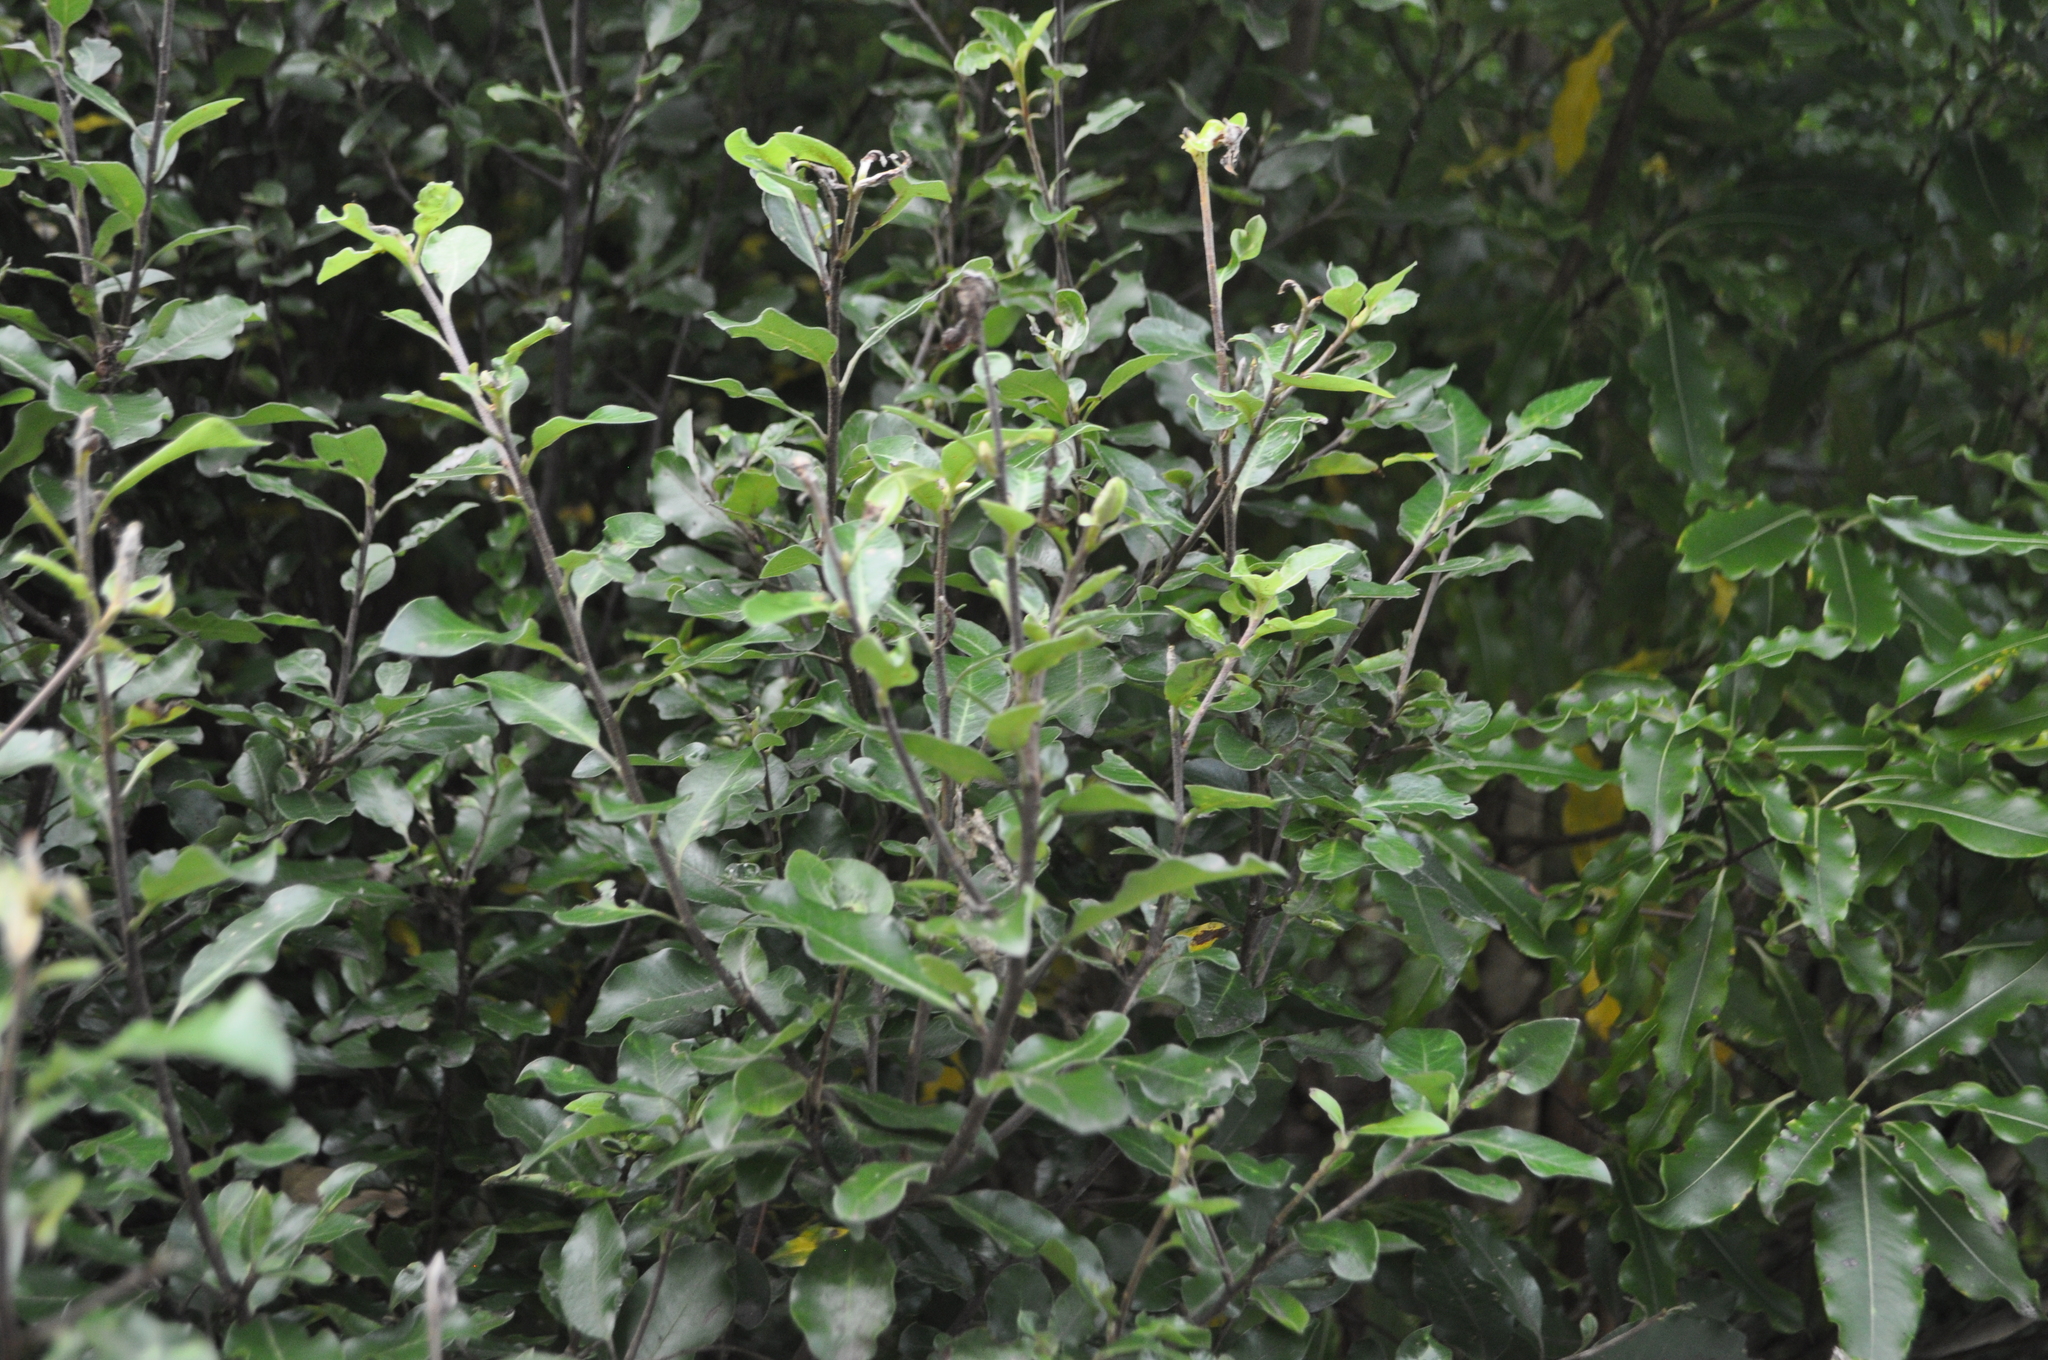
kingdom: Plantae
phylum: Tracheophyta
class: Magnoliopsida
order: Apiales
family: Pittosporaceae
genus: Pittosporum
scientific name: Pittosporum tenuifolium
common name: Kohuhu
